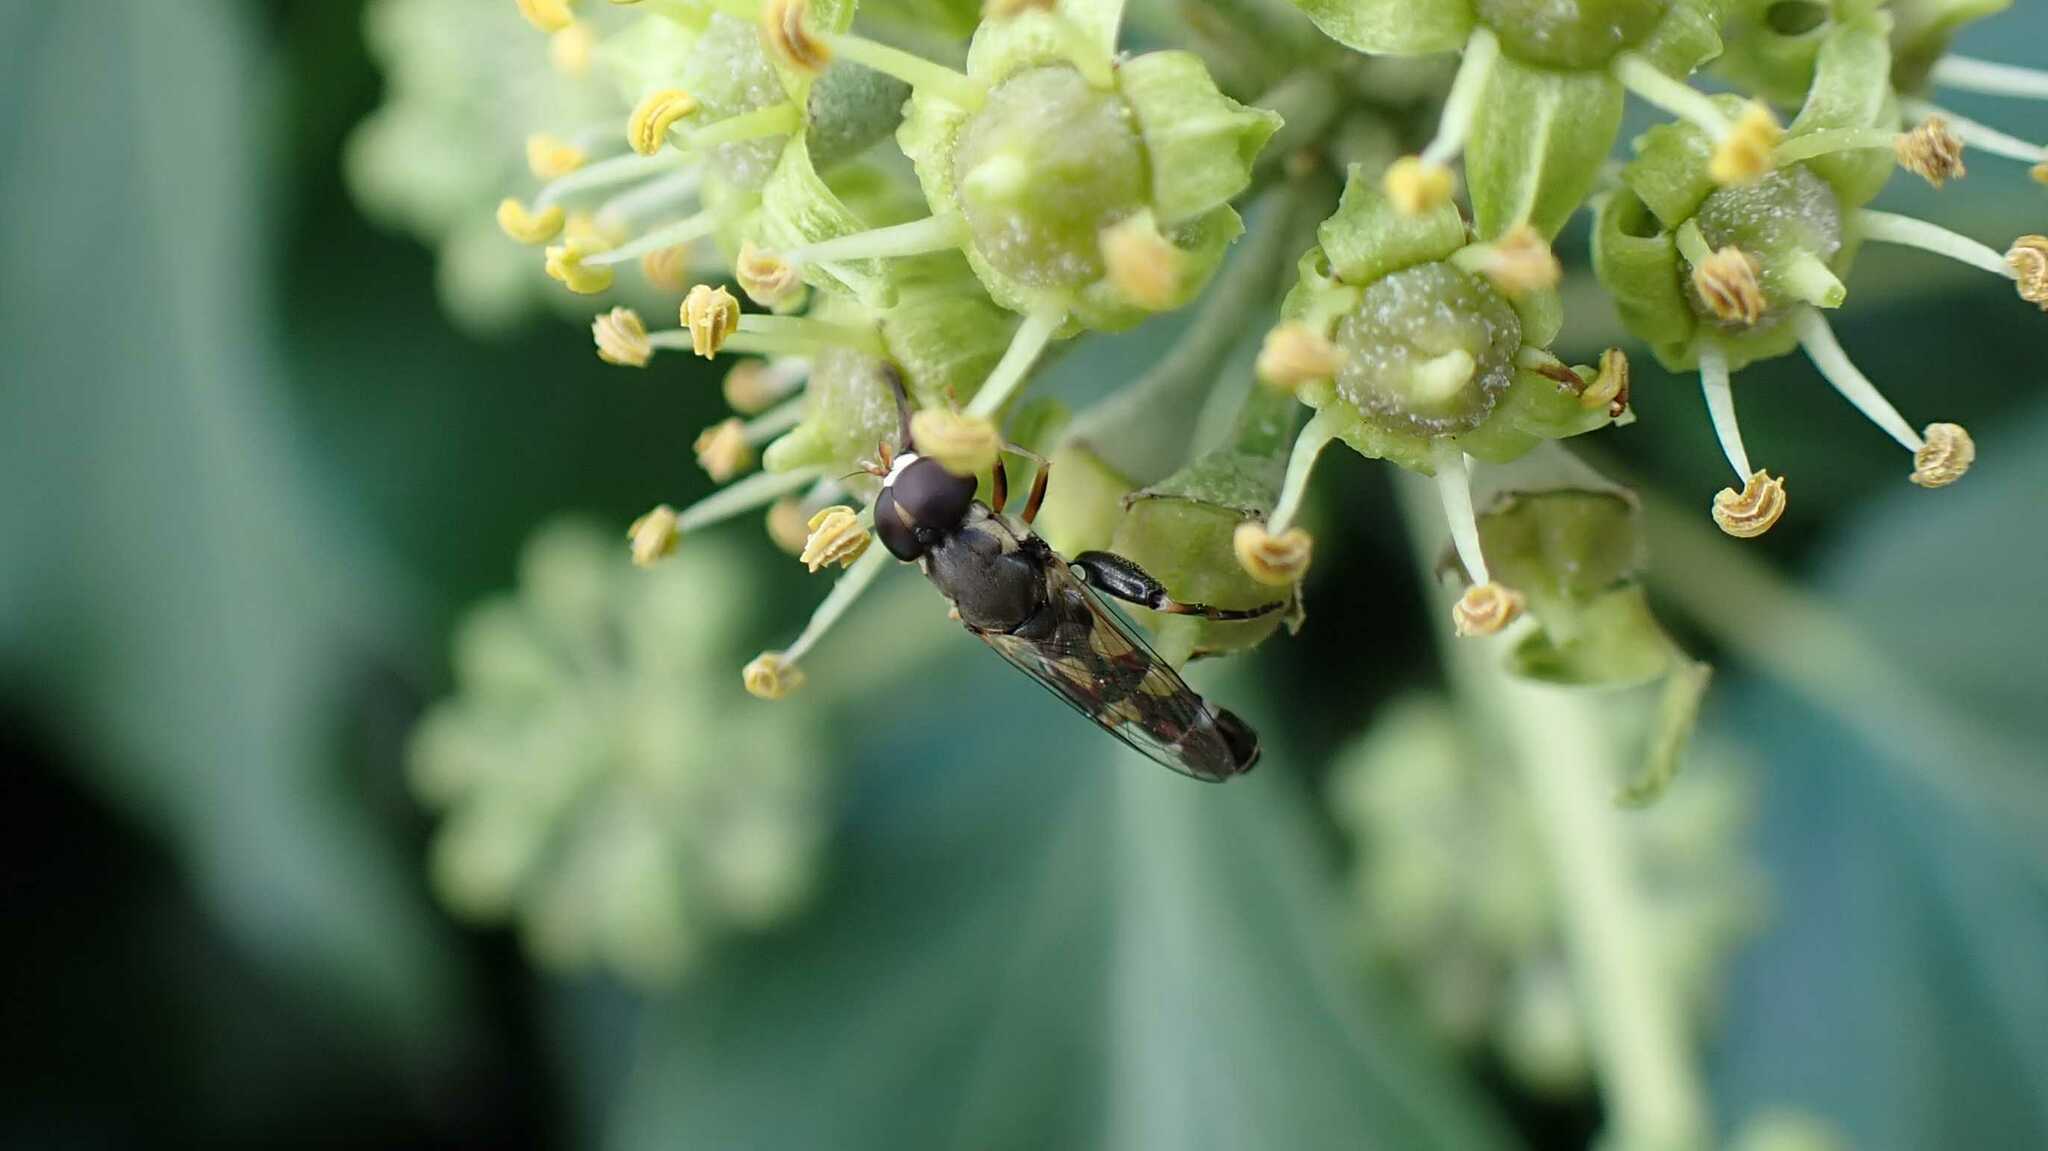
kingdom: Animalia
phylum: Arthropoda
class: Insecta
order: Diptera
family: Syrphidae
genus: Syritta
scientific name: Syritta pipiens
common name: Hover fly
